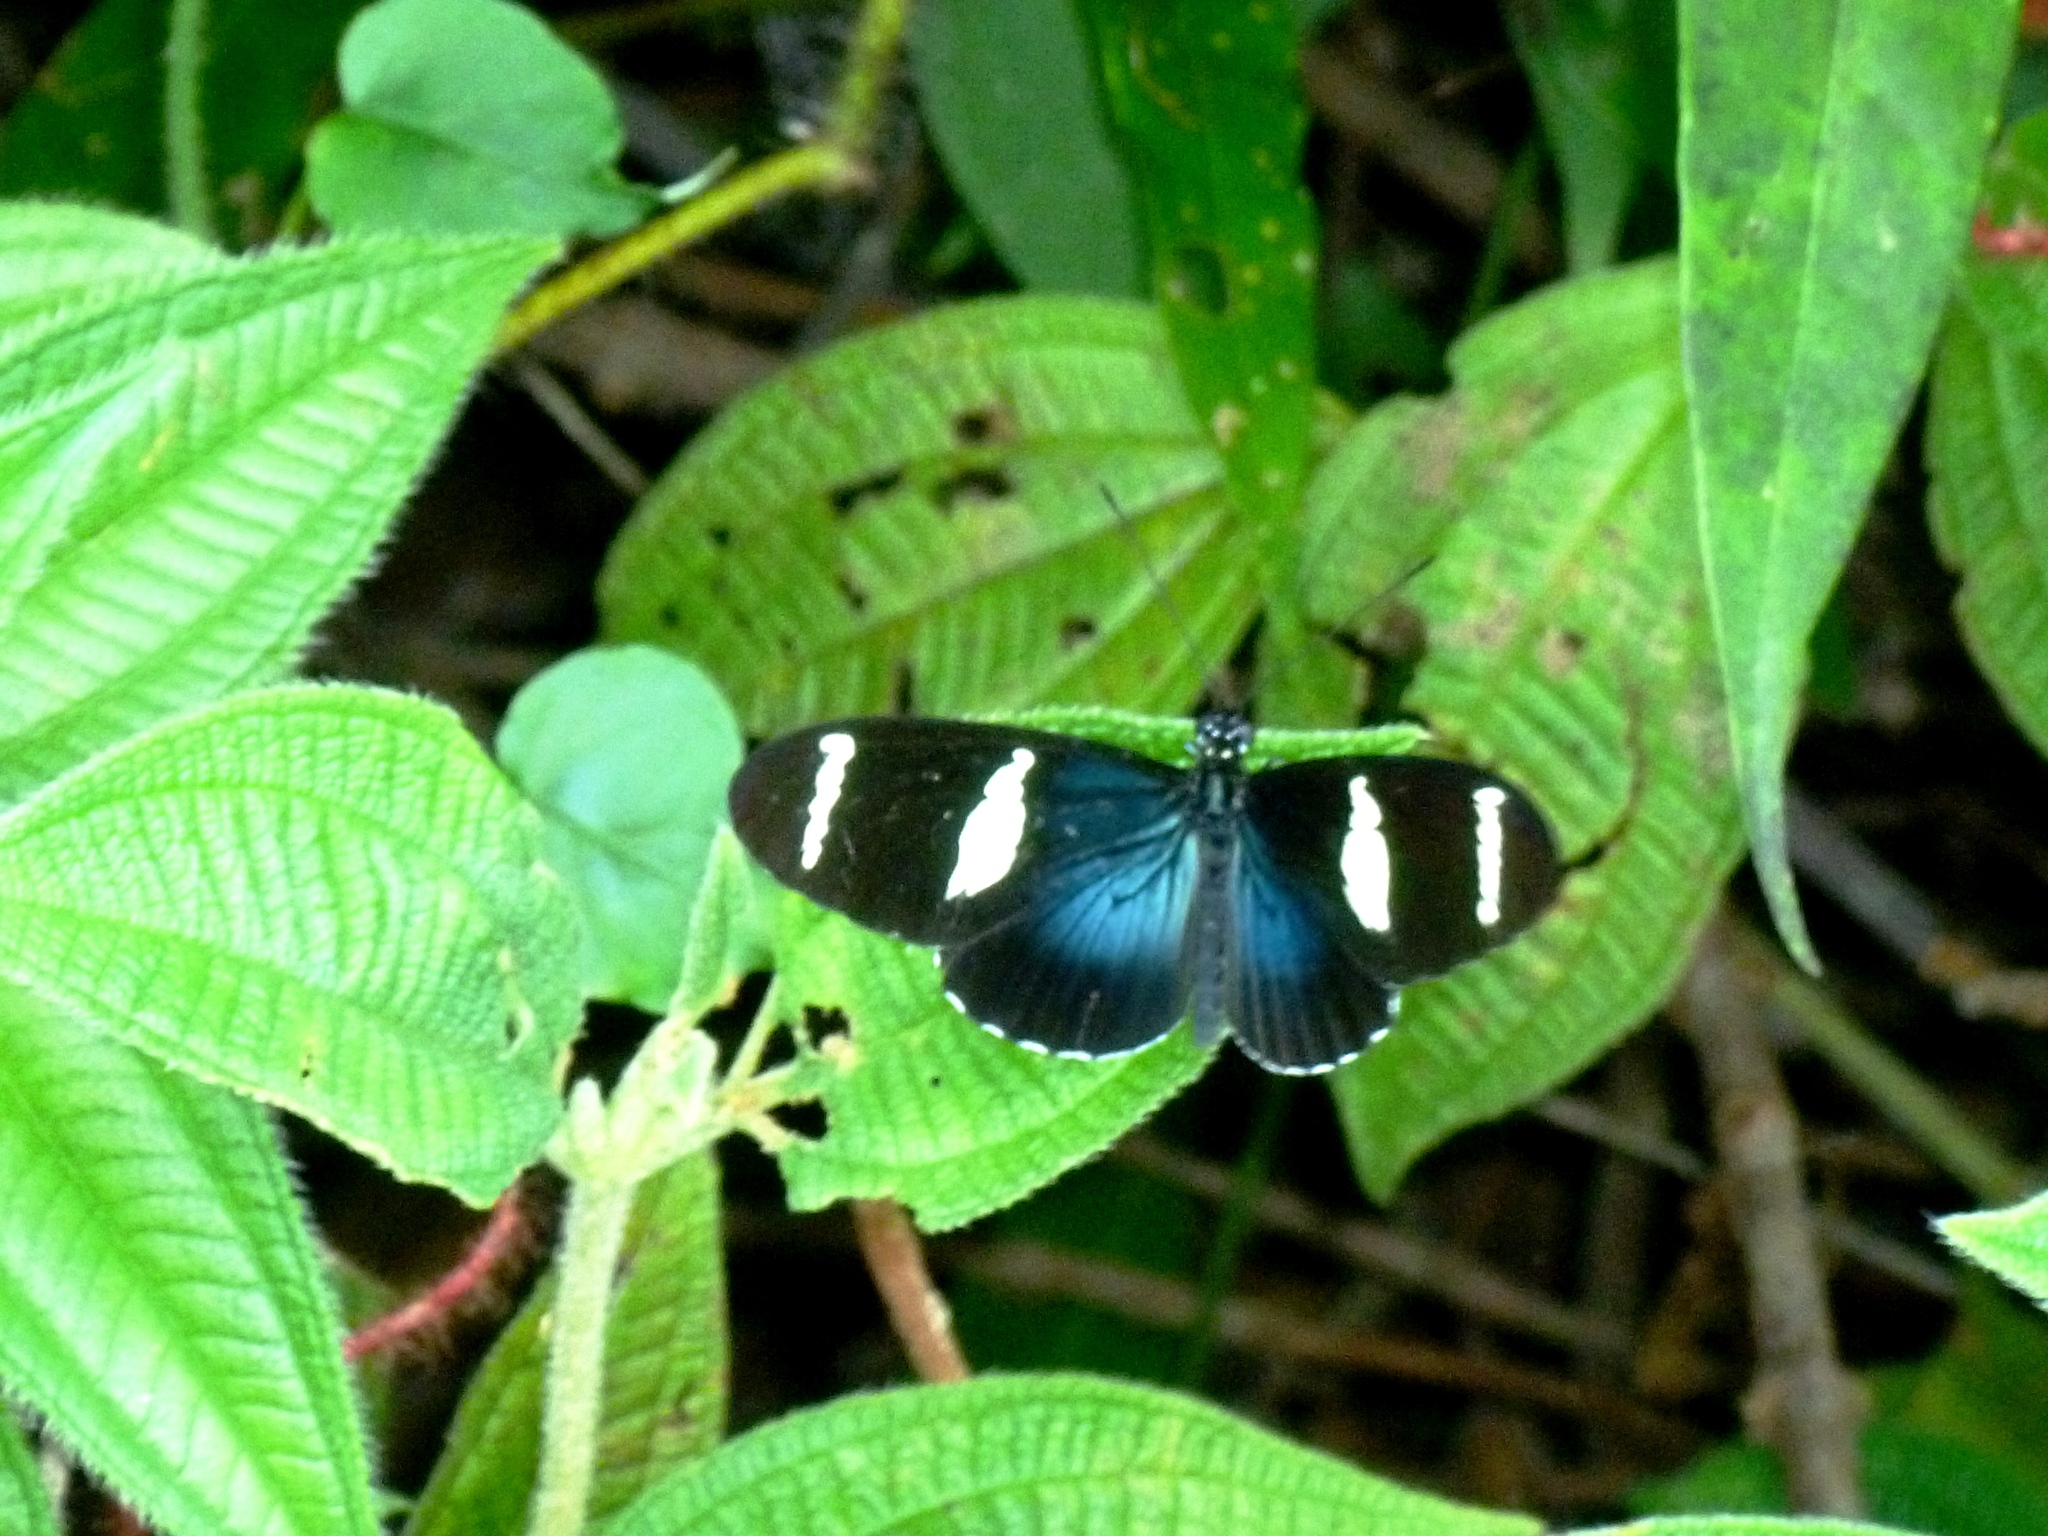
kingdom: Animalia
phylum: Arthropoda
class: Insecta
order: Lepidoptera
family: Nymphalidae
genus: Heliconius
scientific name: Heliconius sara
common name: Sara longwing
